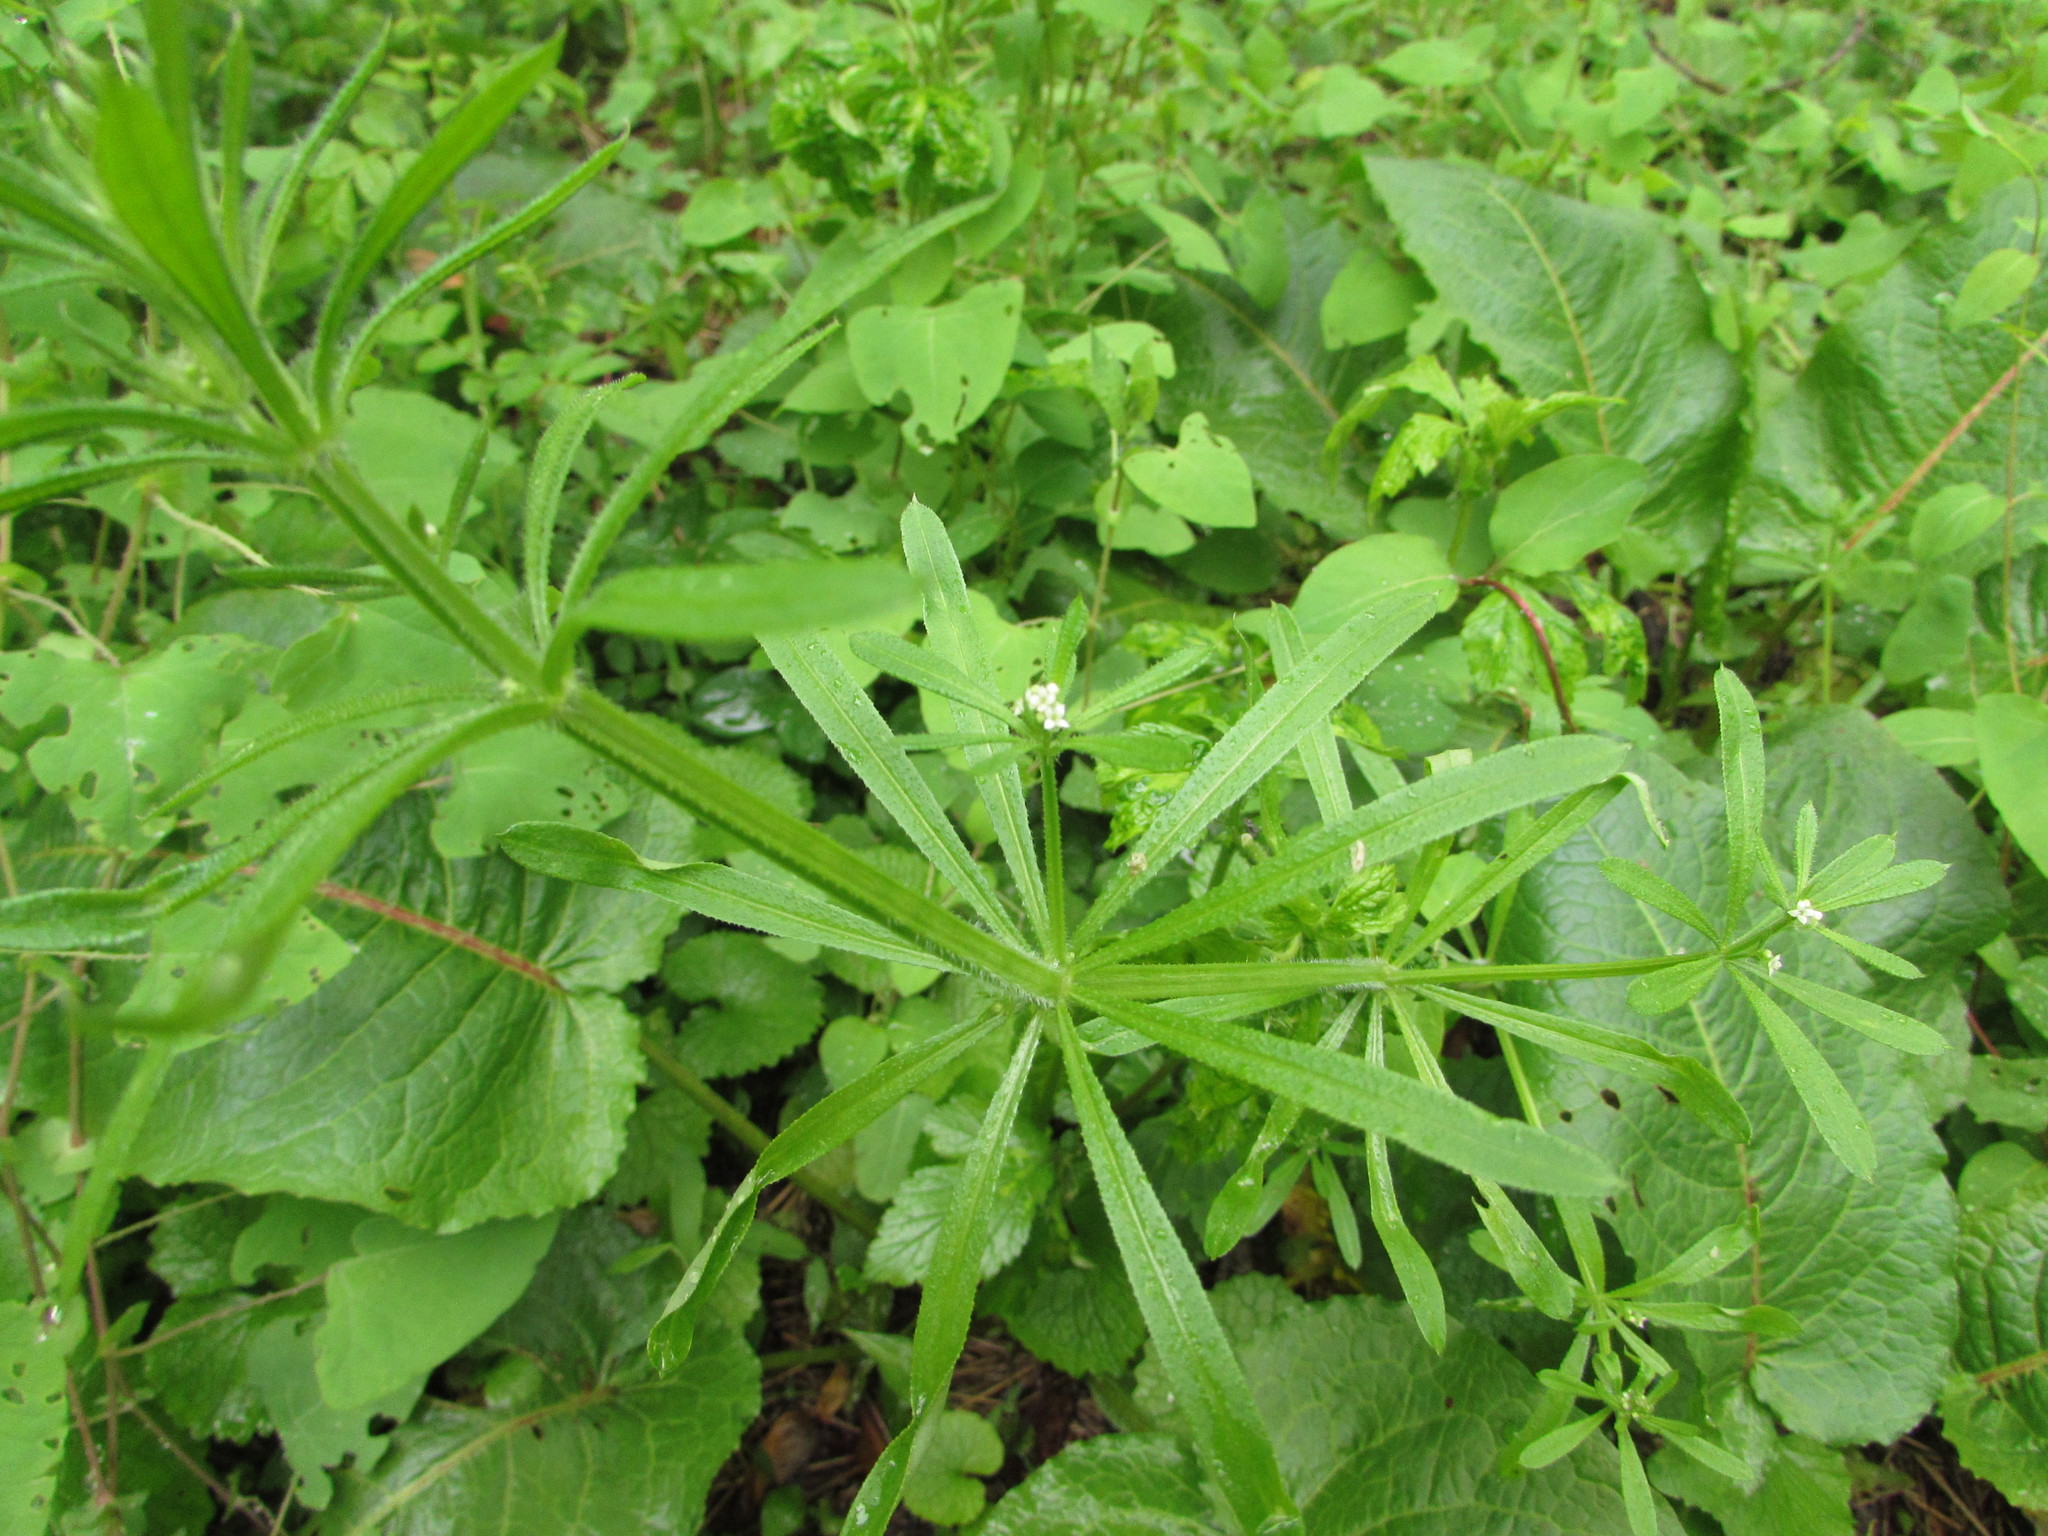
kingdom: Plantae
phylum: Tracheophyta
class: Magnoliopsida
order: Gentianales
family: Rubiaceae
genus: Galium
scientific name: Galium aparine
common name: Cleavers
